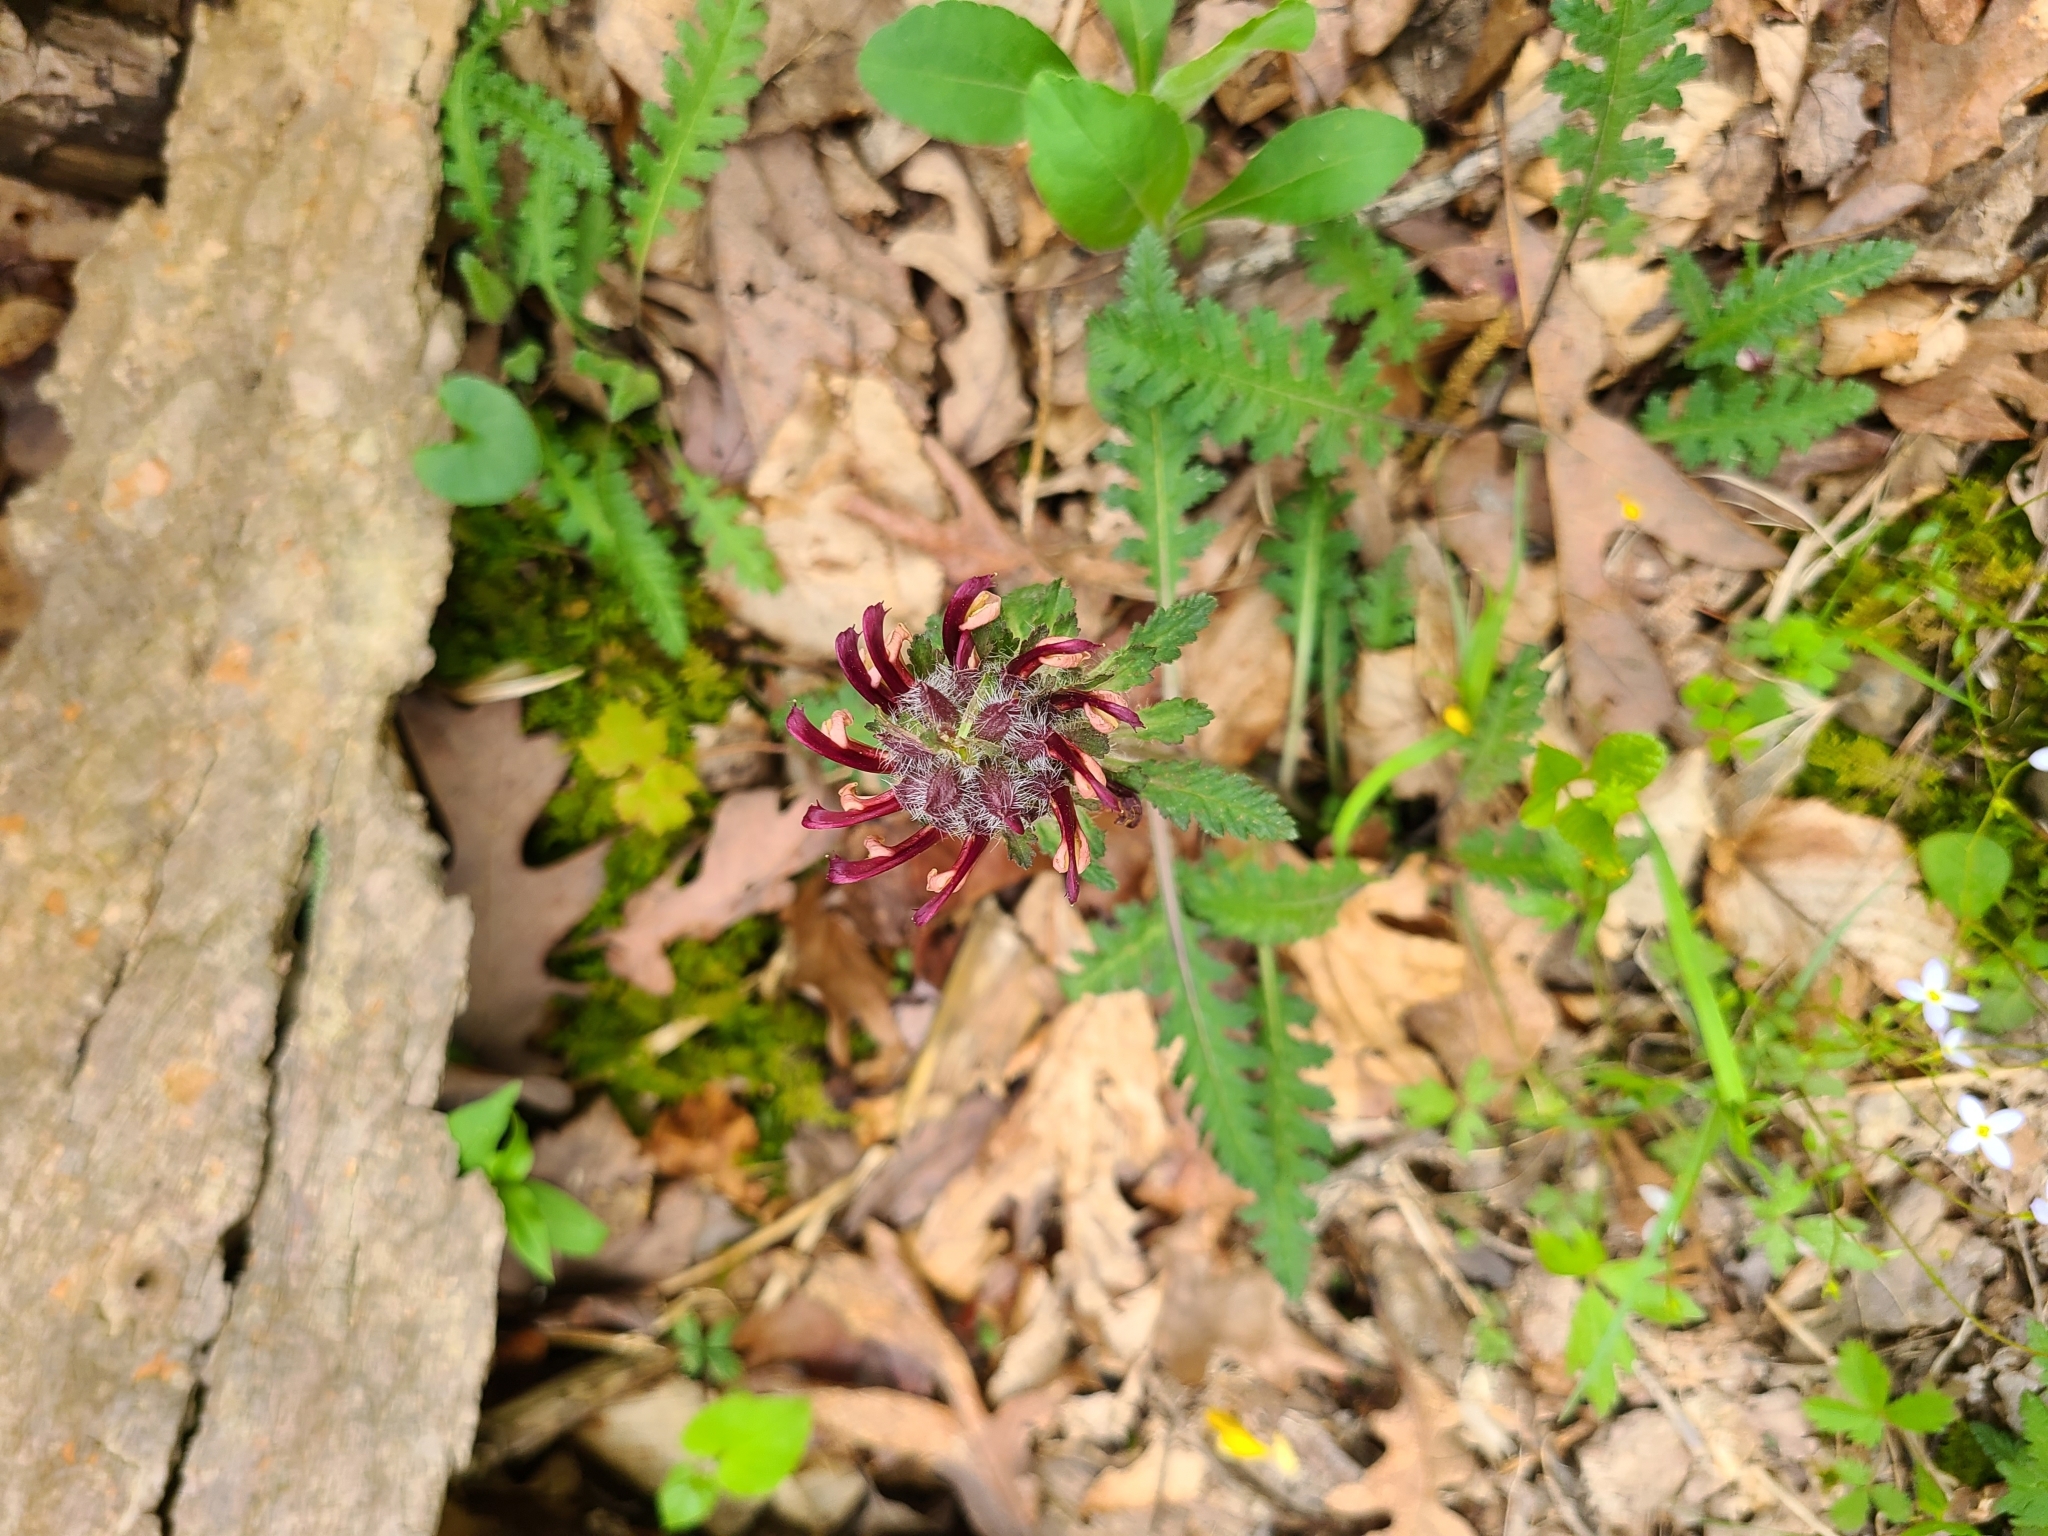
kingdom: Plantae
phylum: Tracheophyta
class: Magnoliopsida
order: Lamiales
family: Orobanchaceae
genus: Pedicularis
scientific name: Pedicularis canadensis
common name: Early lousewort
